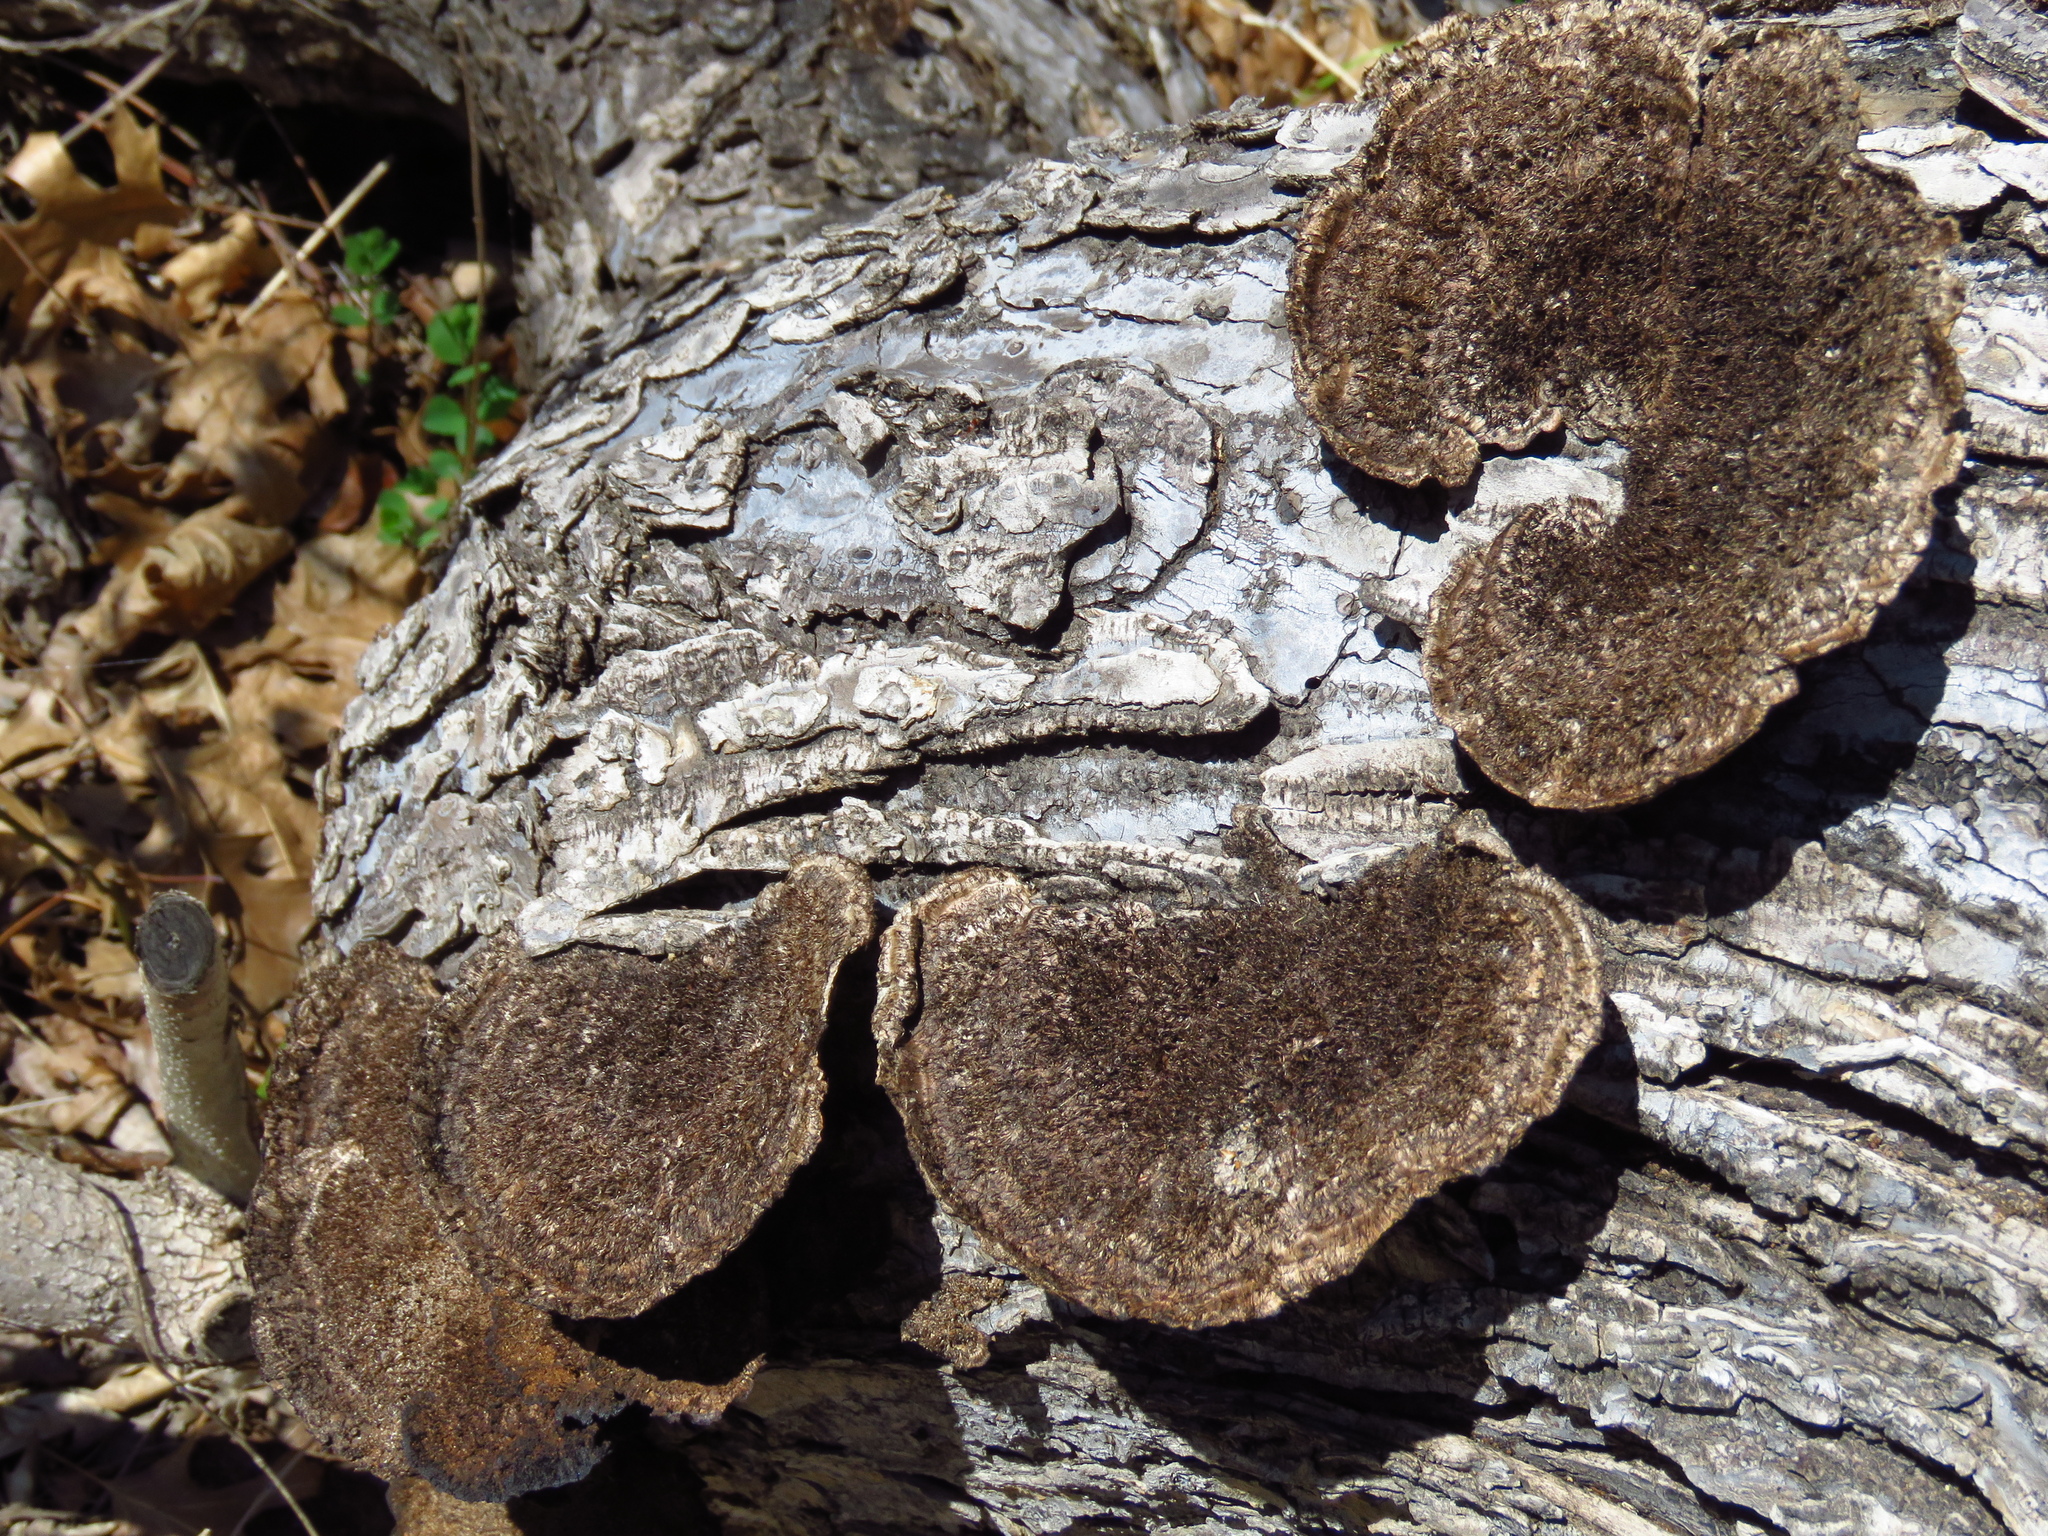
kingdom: Fungi
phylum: Basidiomycota
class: Agaricomycetes
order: Polyporales
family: Cerrenaceae
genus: Cerrena
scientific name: Cerrena hydnoides
